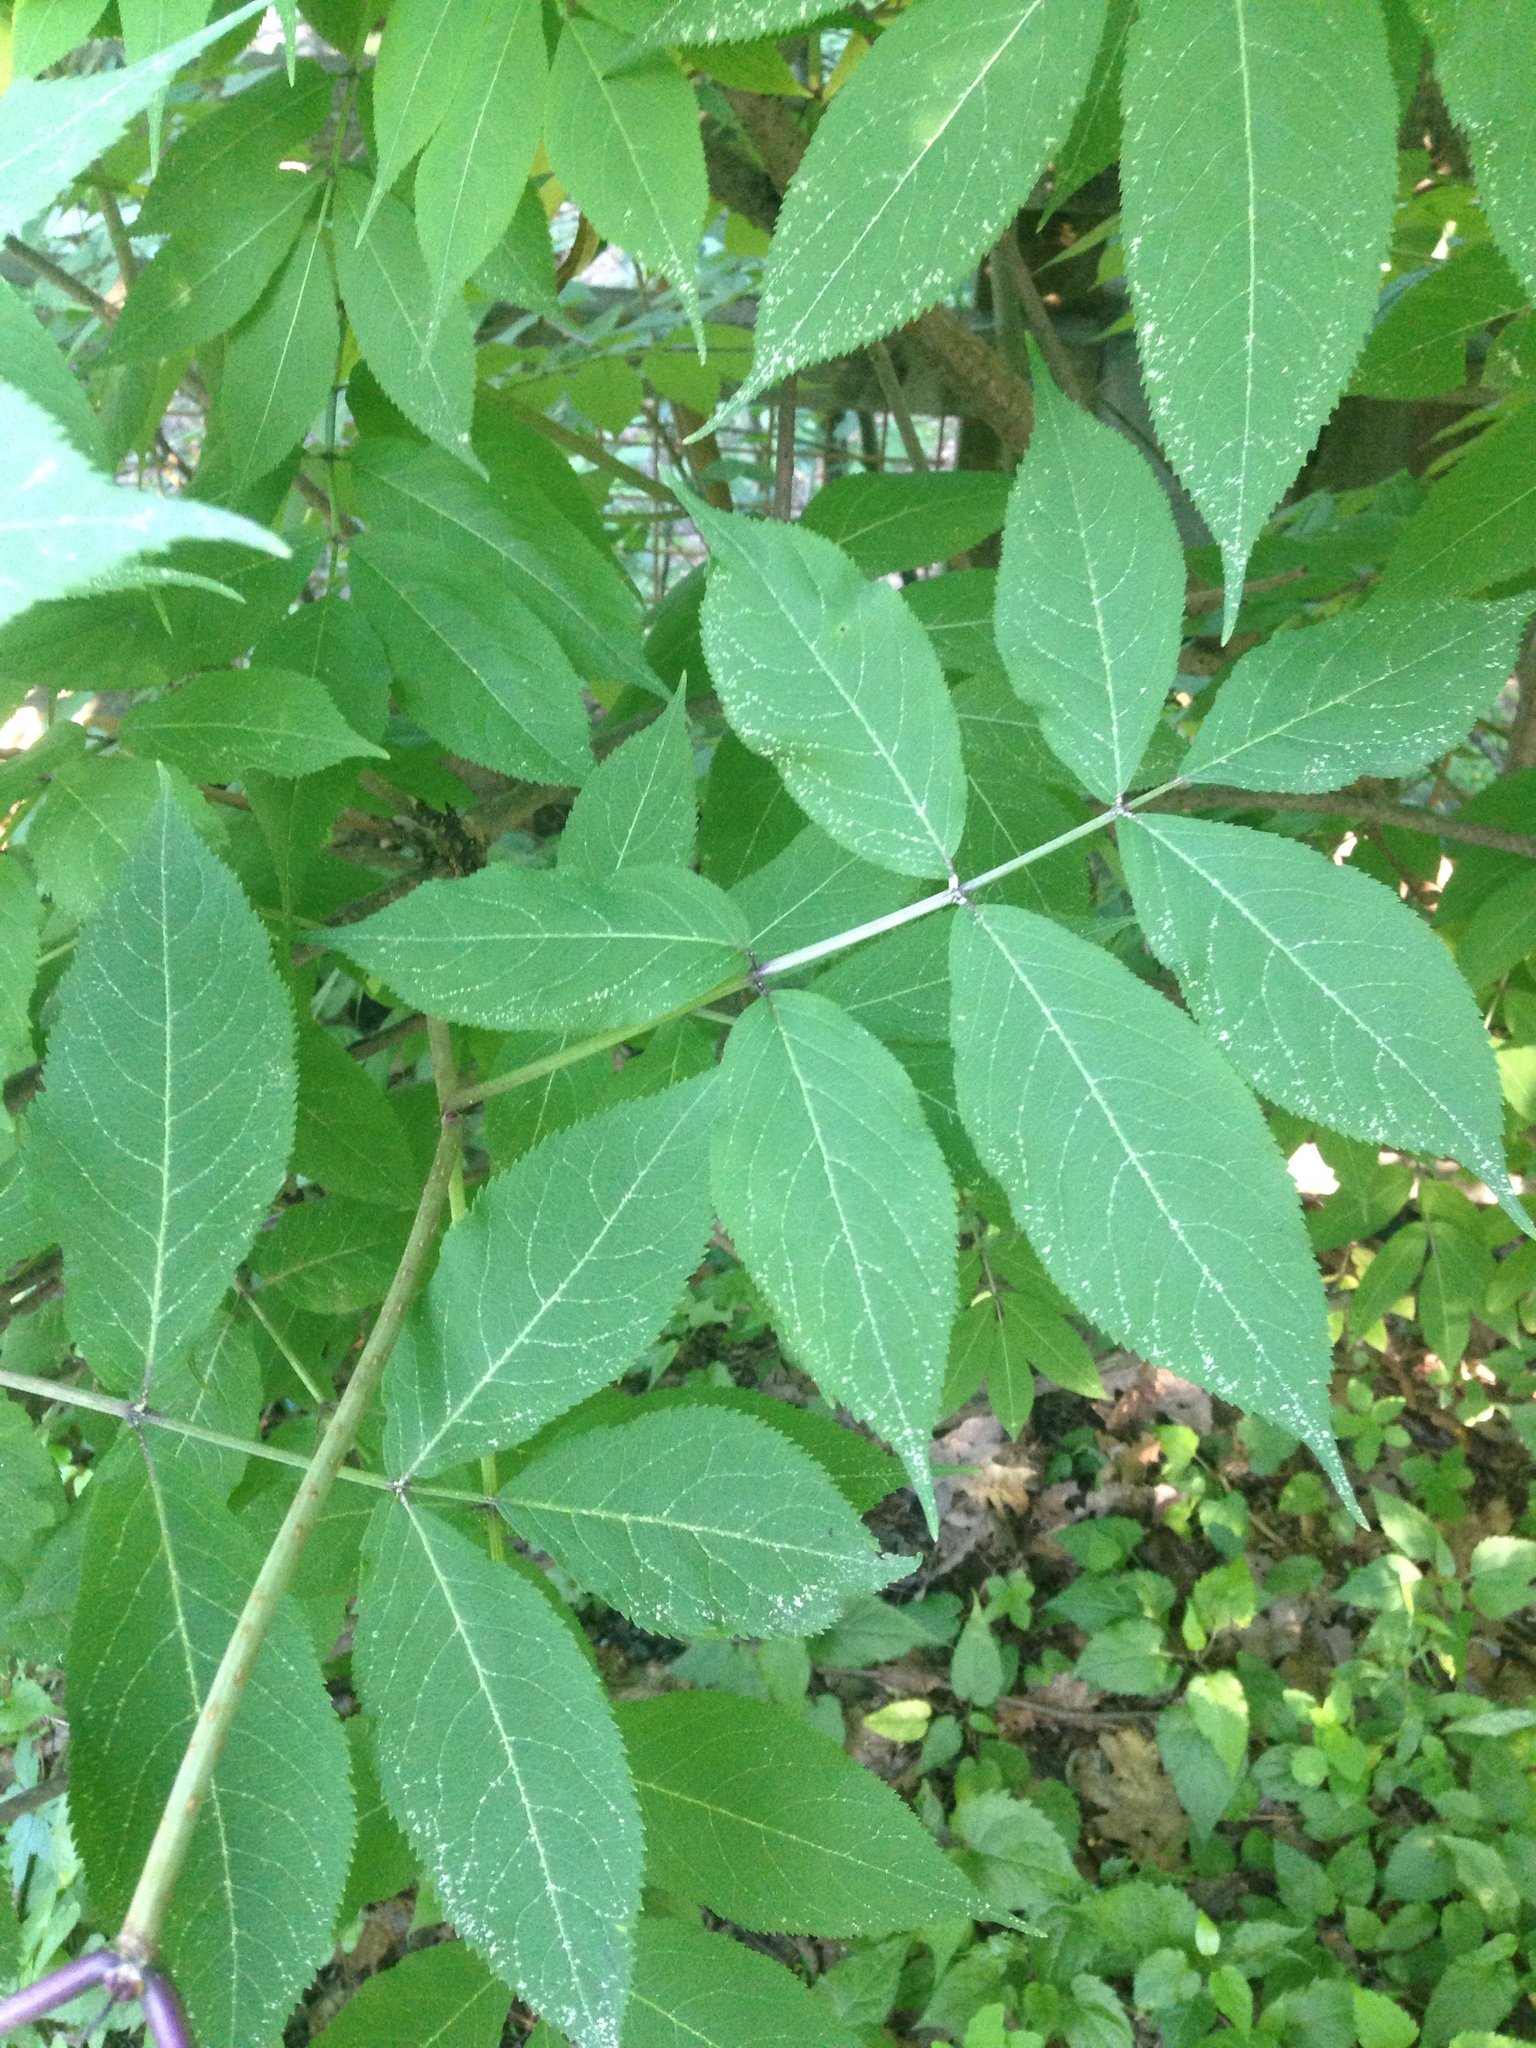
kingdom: Plantae
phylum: Tracheophyta
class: Magnoliopsida
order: Dipsacales
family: Viburnaceae
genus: Sambucus
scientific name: Sambucus racemosa
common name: Red-berried elder
